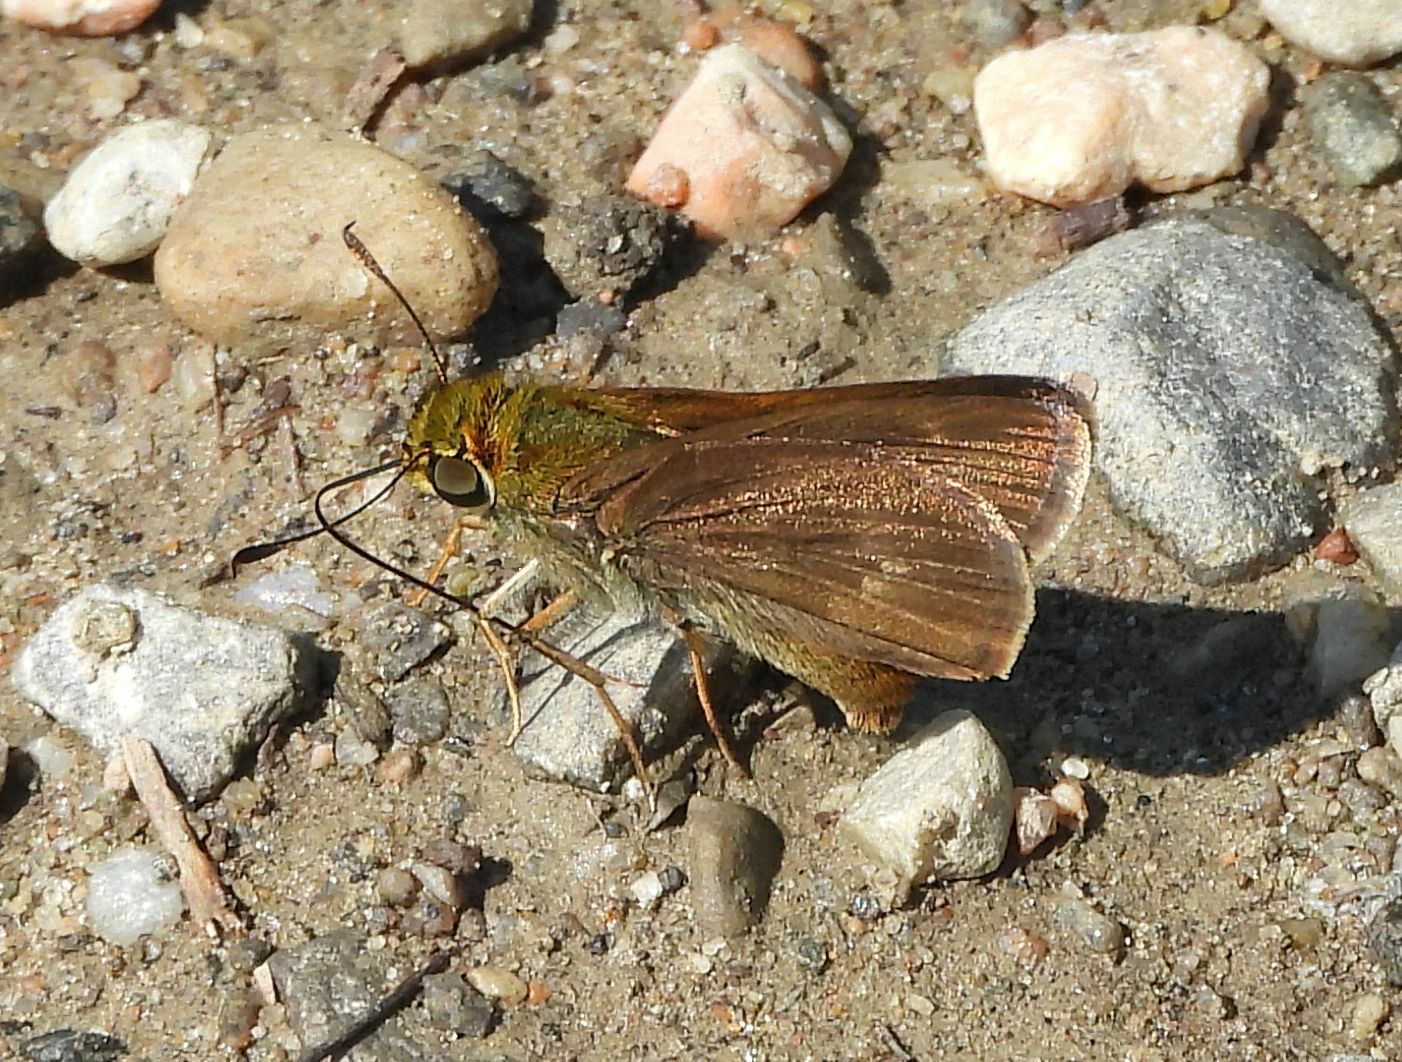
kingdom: Animalia
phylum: Arthropoda
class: Insecta
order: Lepidoptera
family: Hesperiidae
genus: Euphyes
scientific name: Euphyes vestris
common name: Dun skipper
